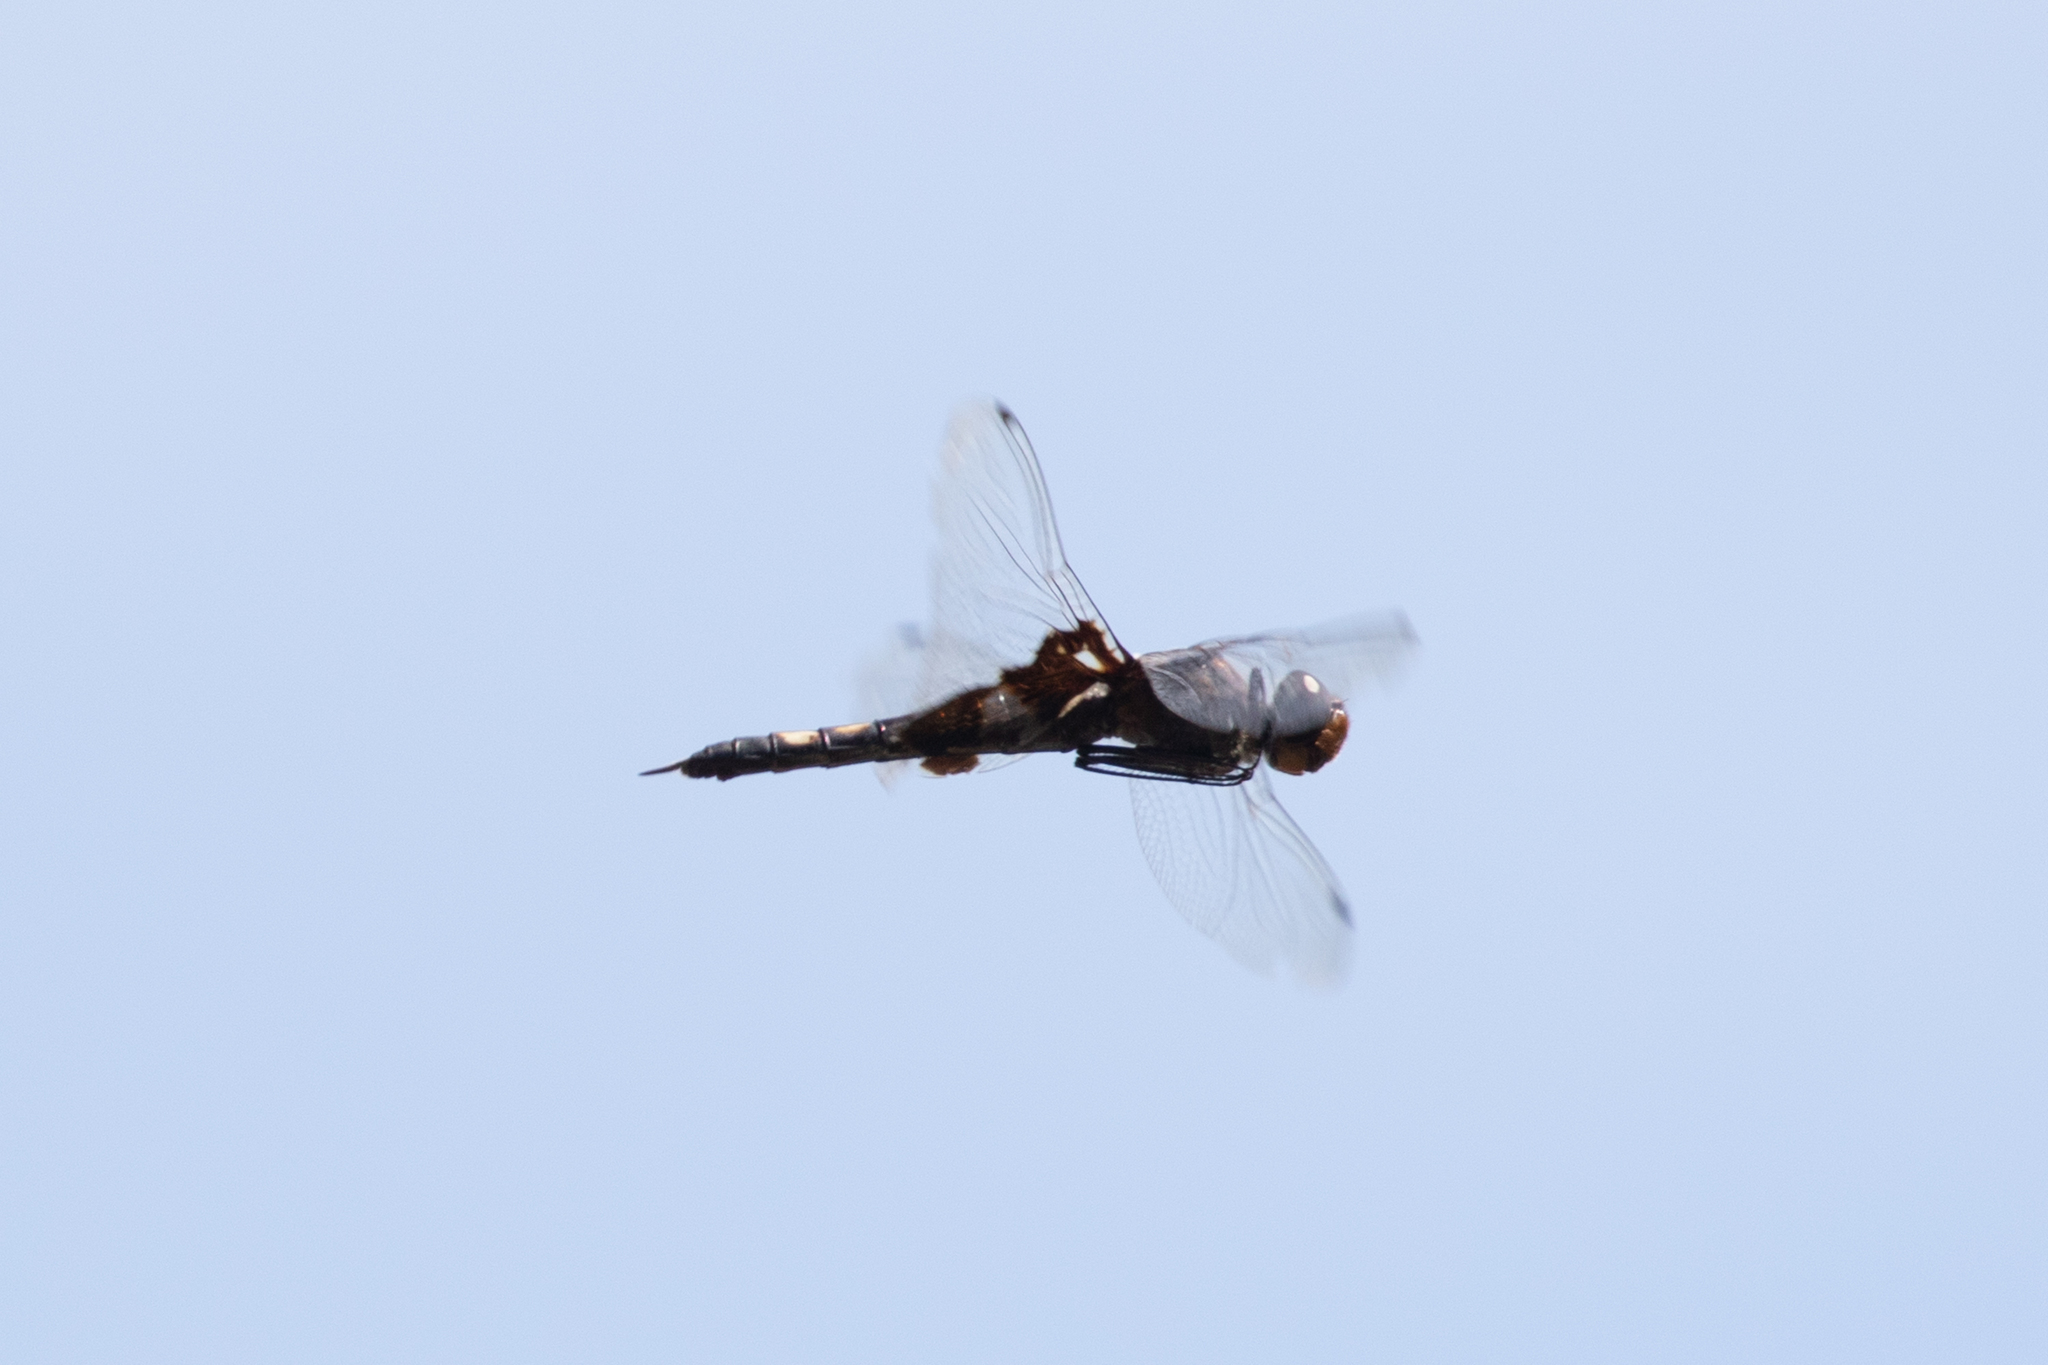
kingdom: Animalia
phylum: Arthropoda
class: Insecta
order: Odonata
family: Libellulidae
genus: Tramea
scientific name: Tramea lacerata
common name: Black saddlebags
